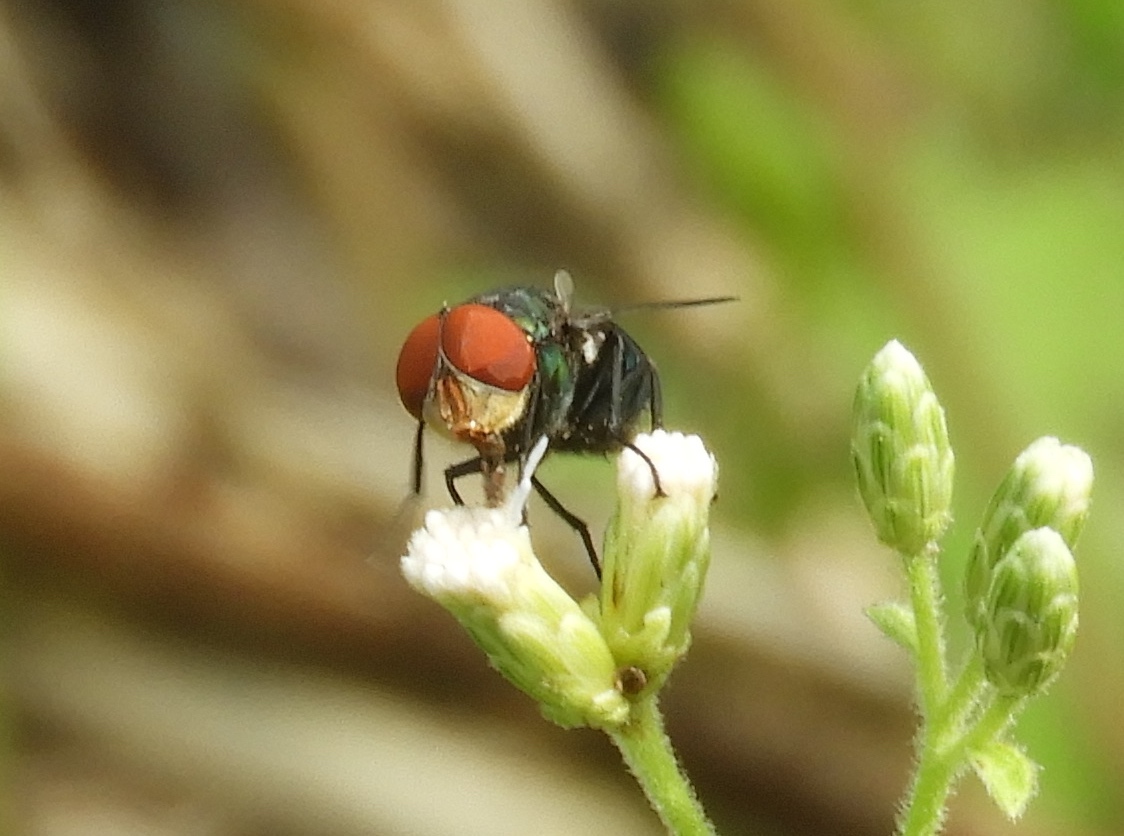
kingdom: Animalia
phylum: Arthropoda
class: Insecta
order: Diptera
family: Calliphoridae
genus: Chrysomya
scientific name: Chrysomya megacephala
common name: Blow fly
